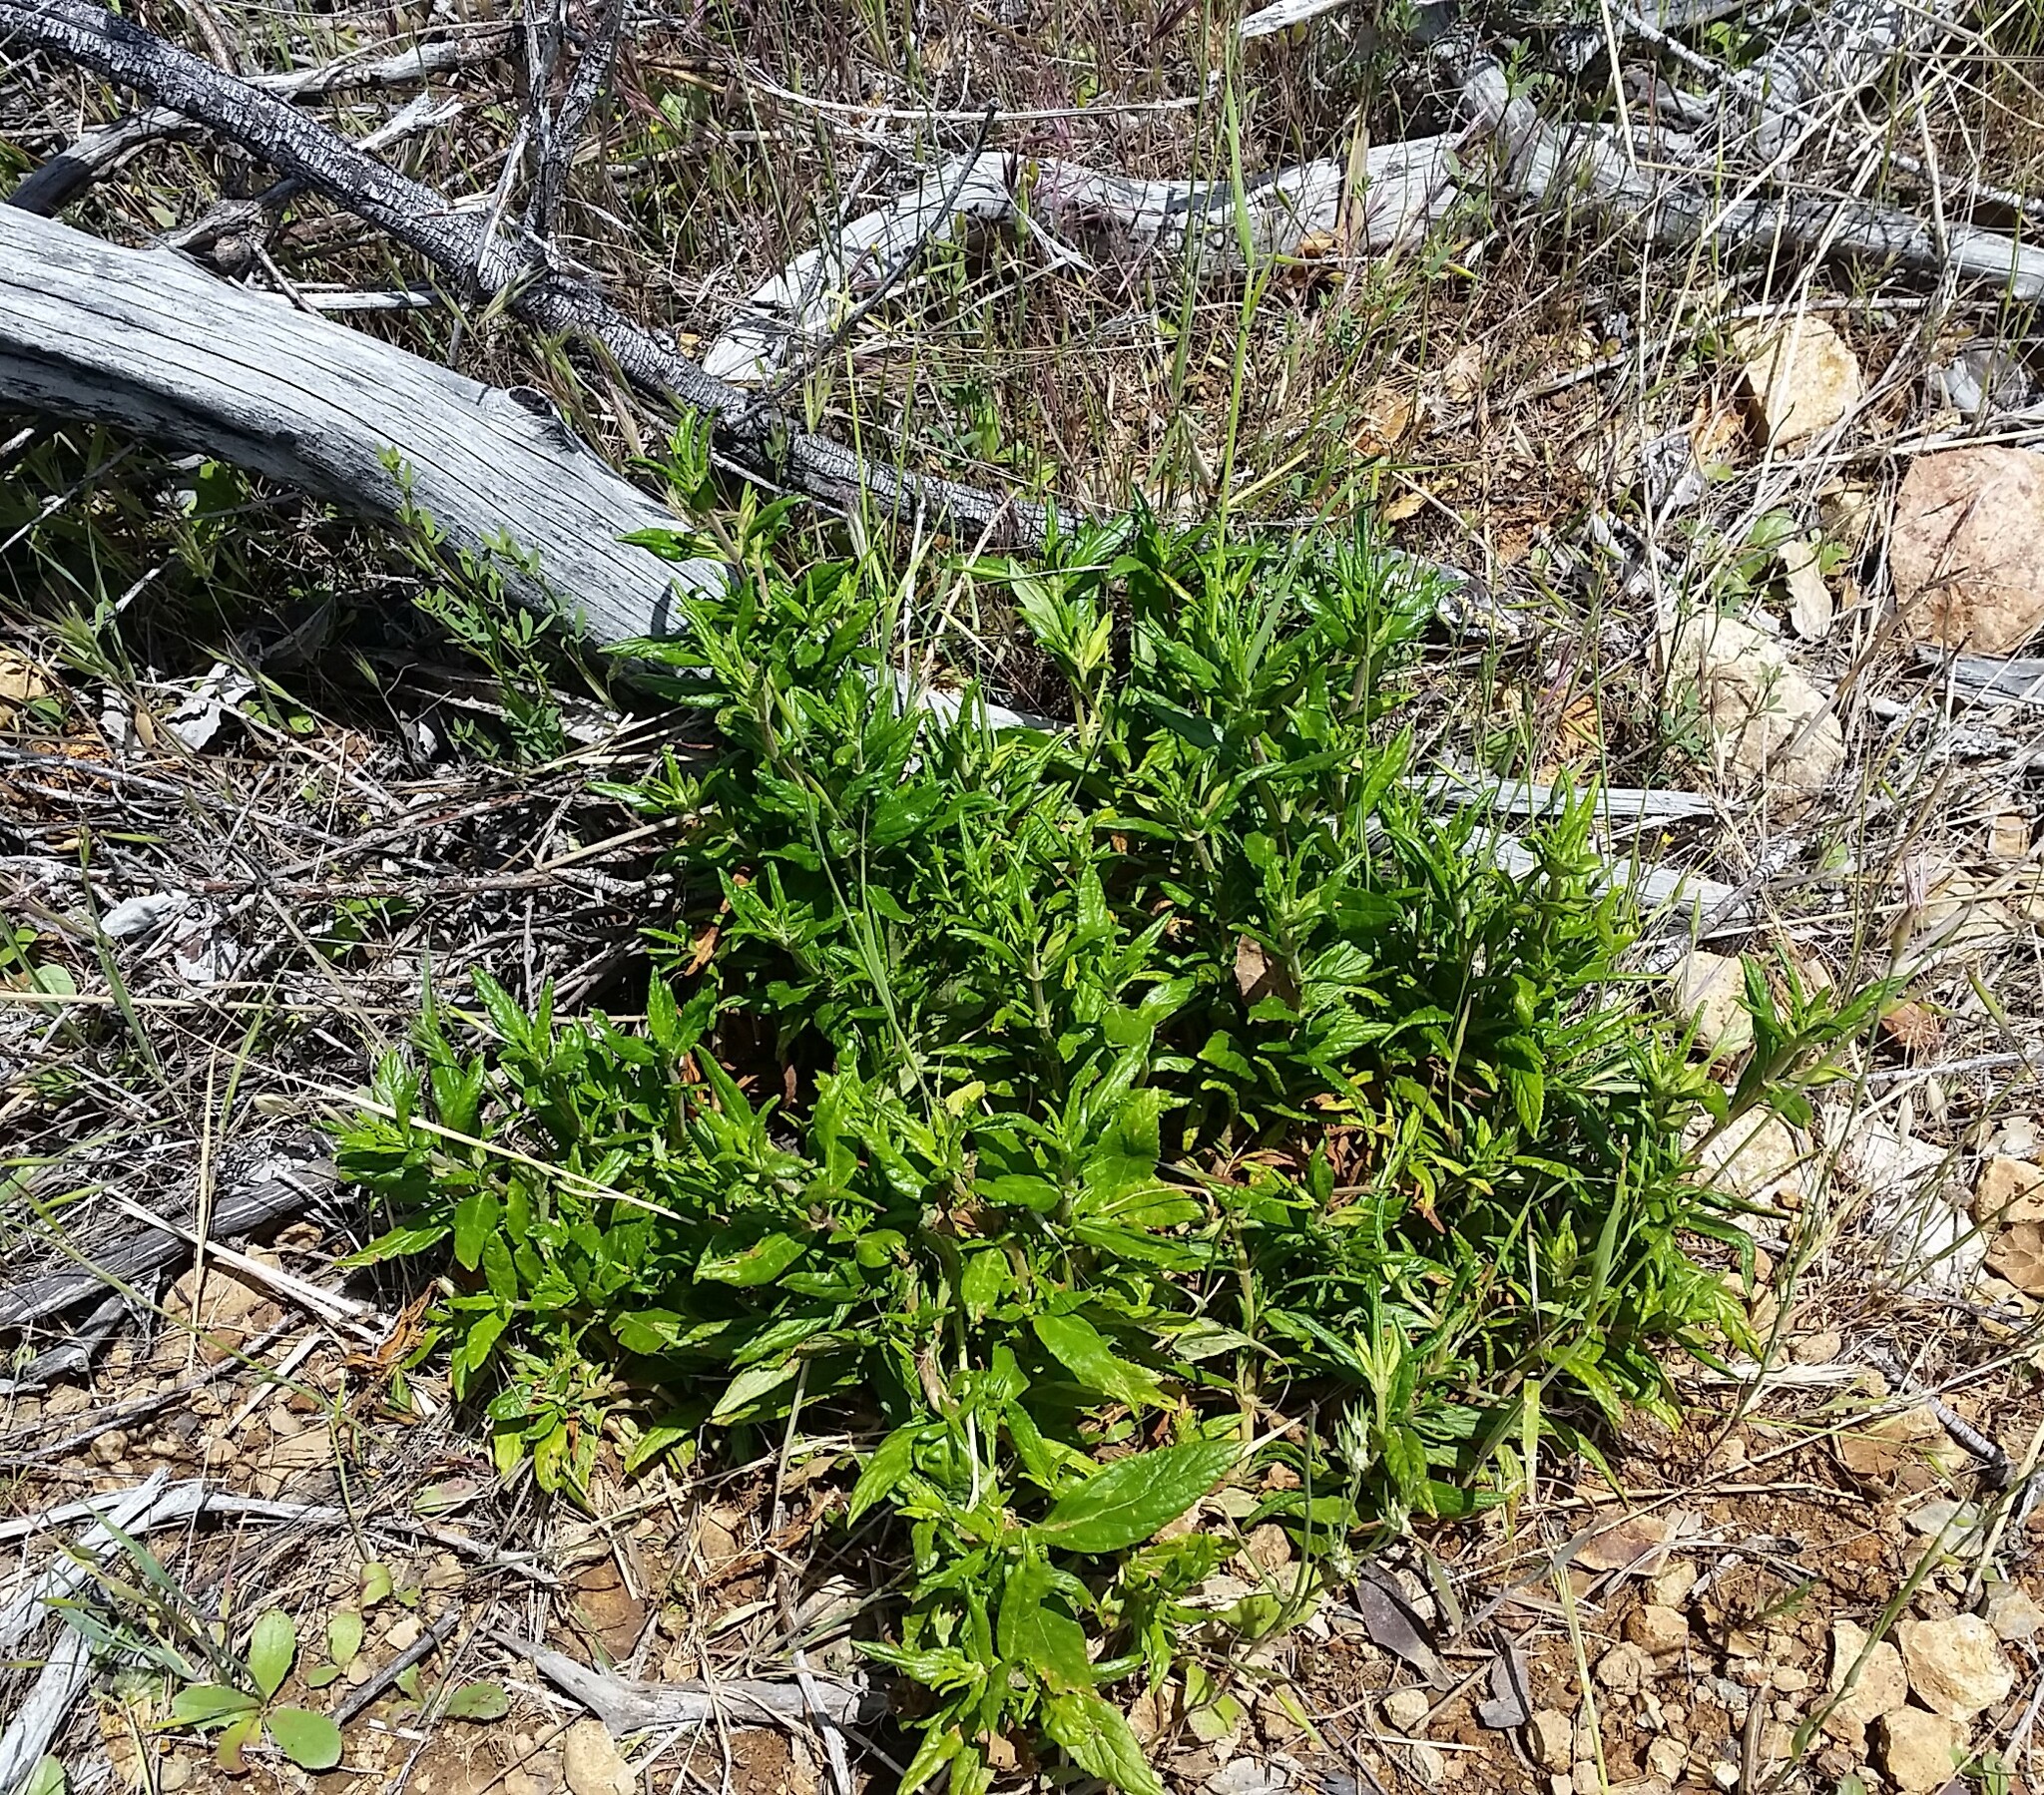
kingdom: Plantae
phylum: Tracheophyta
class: Magnoliopsida
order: Lamiales
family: Phrymaceae
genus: Diplacus
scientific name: Diplacus aurantiacus
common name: Bush monkey-flower
